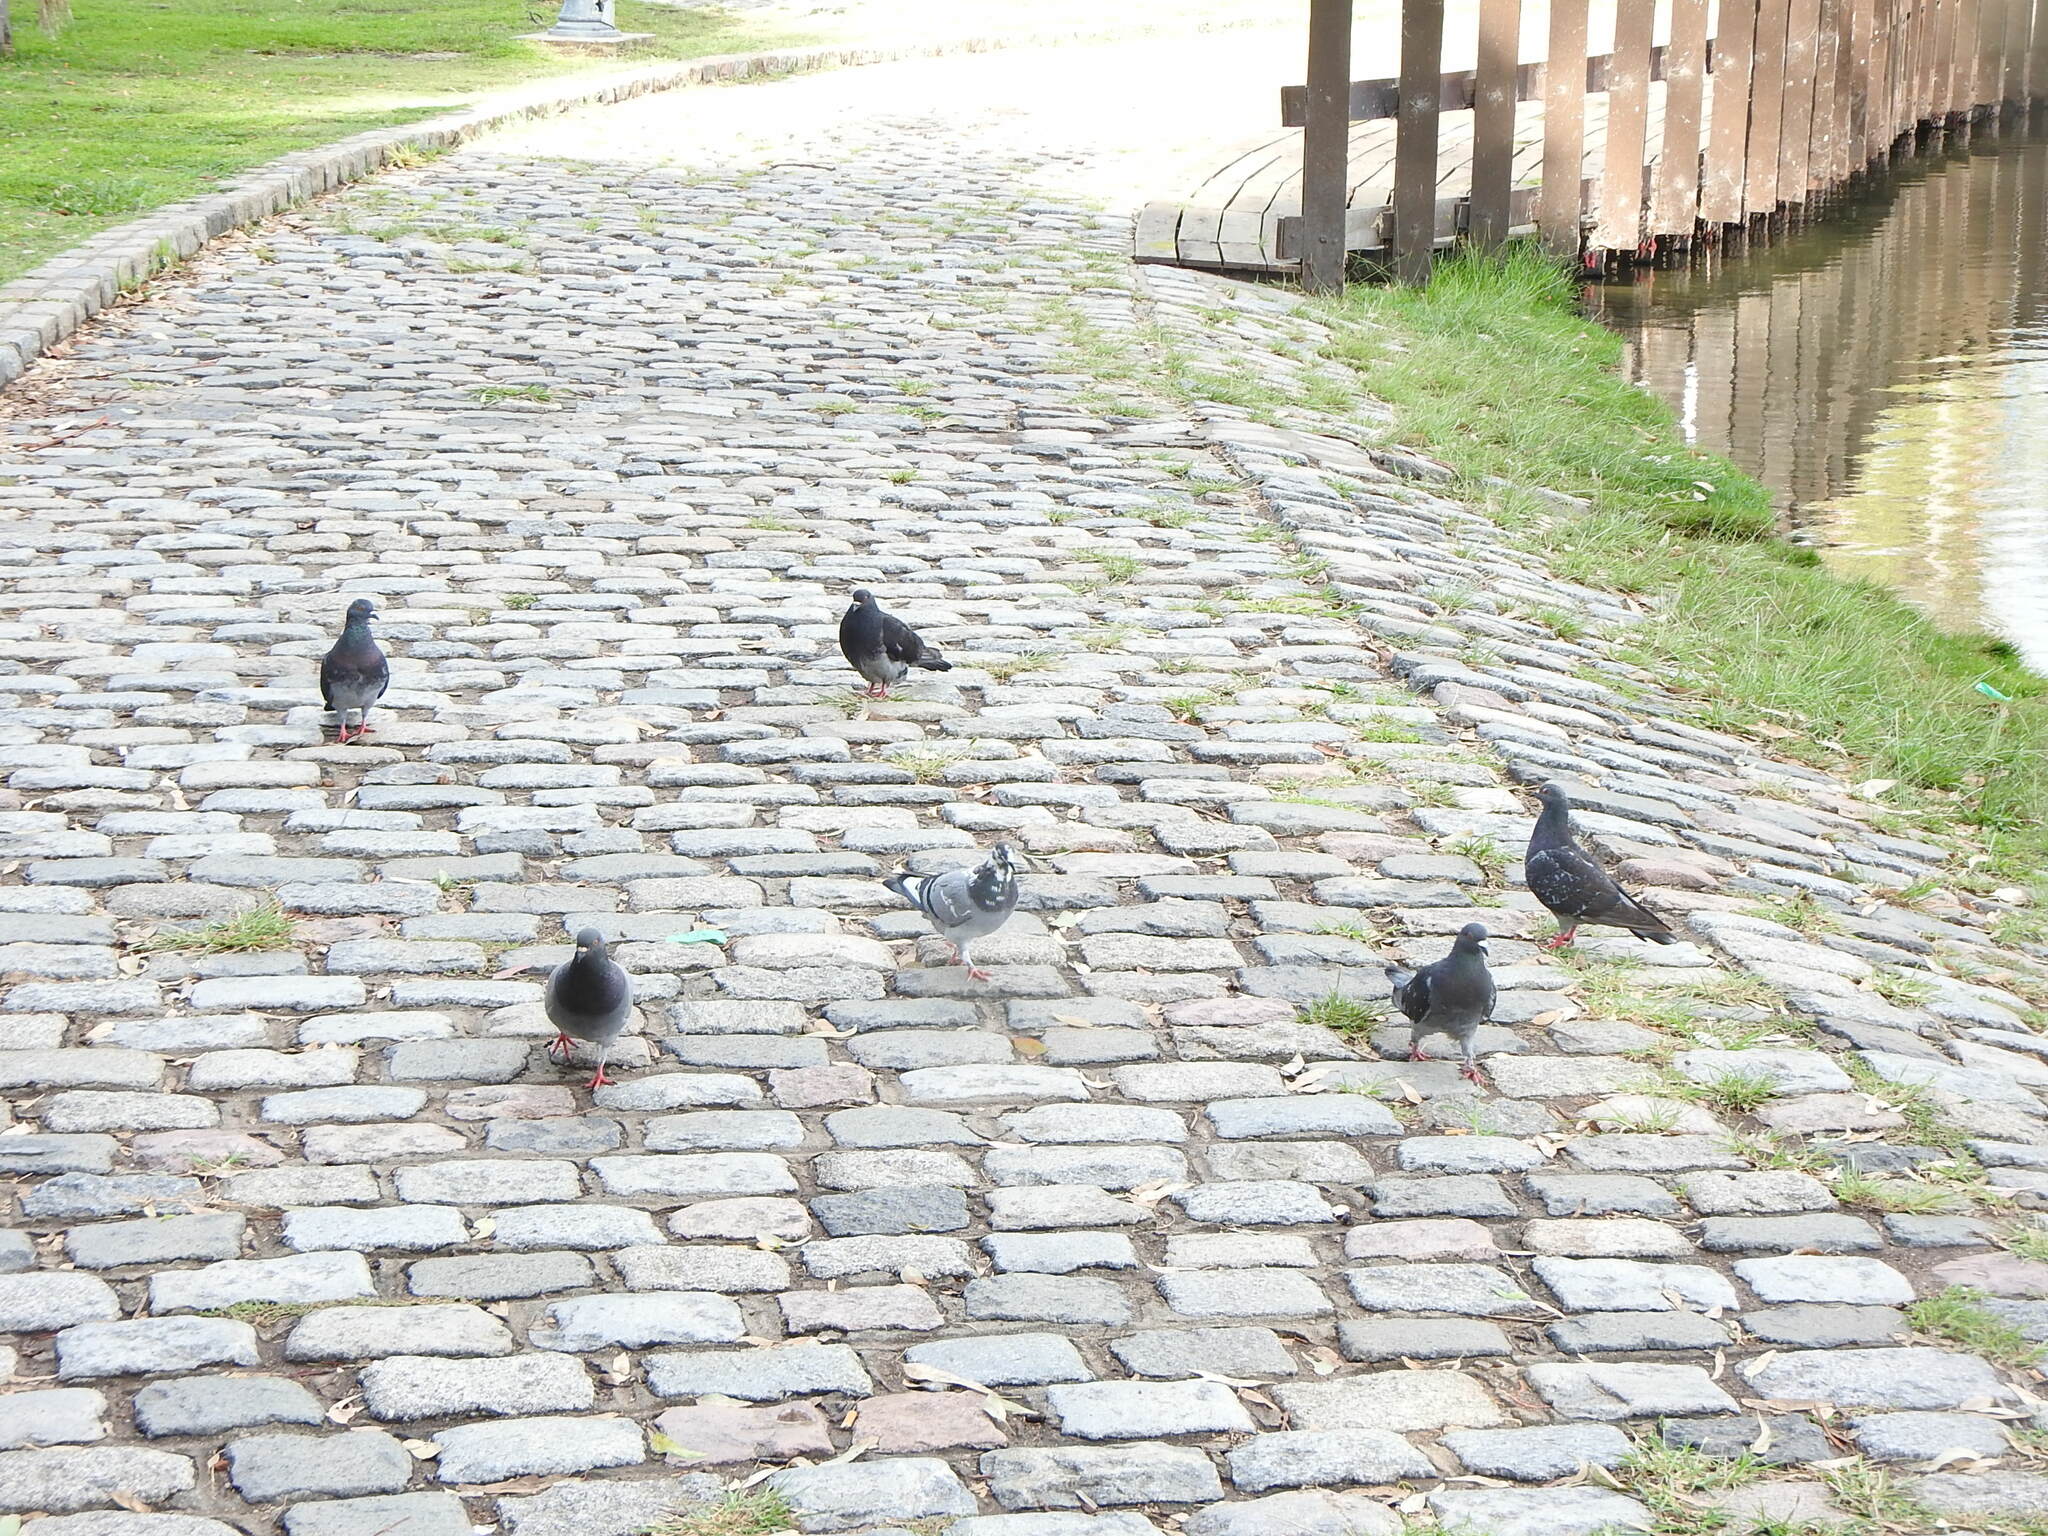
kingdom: Animalia
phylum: Chordata
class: Aves
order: Columbiformes
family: Columbidae
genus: Columba
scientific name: Columba livia
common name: Rock pigeon
